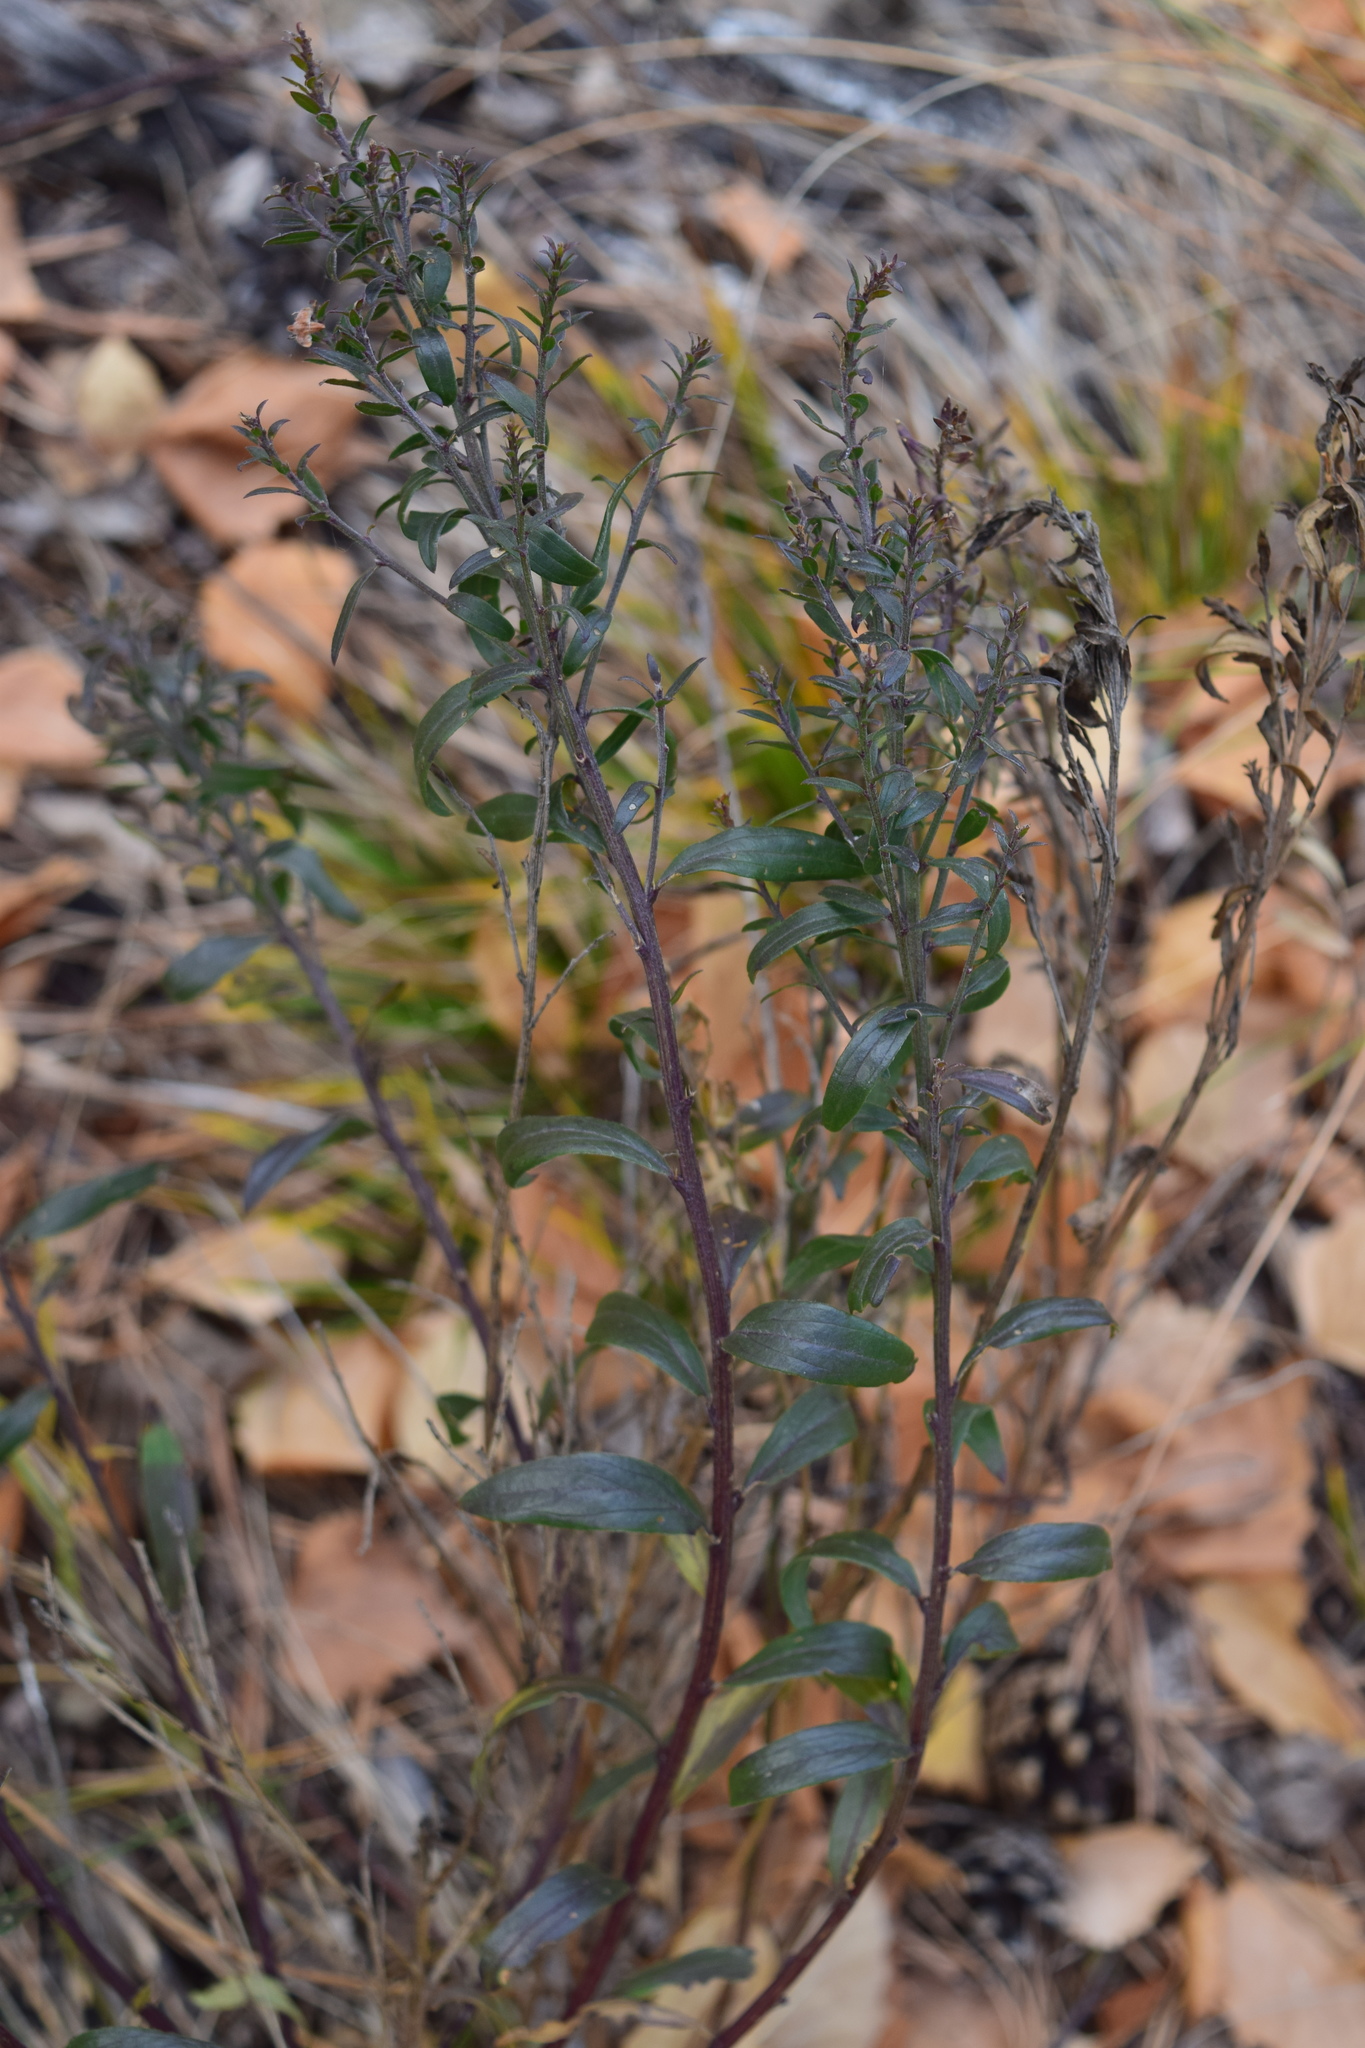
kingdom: Plantae
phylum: Tracheophyta
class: Magnoliopsida
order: Fabales
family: Fabaceae
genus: Genista
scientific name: Genista tinctoria
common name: Dyer's greenweed
